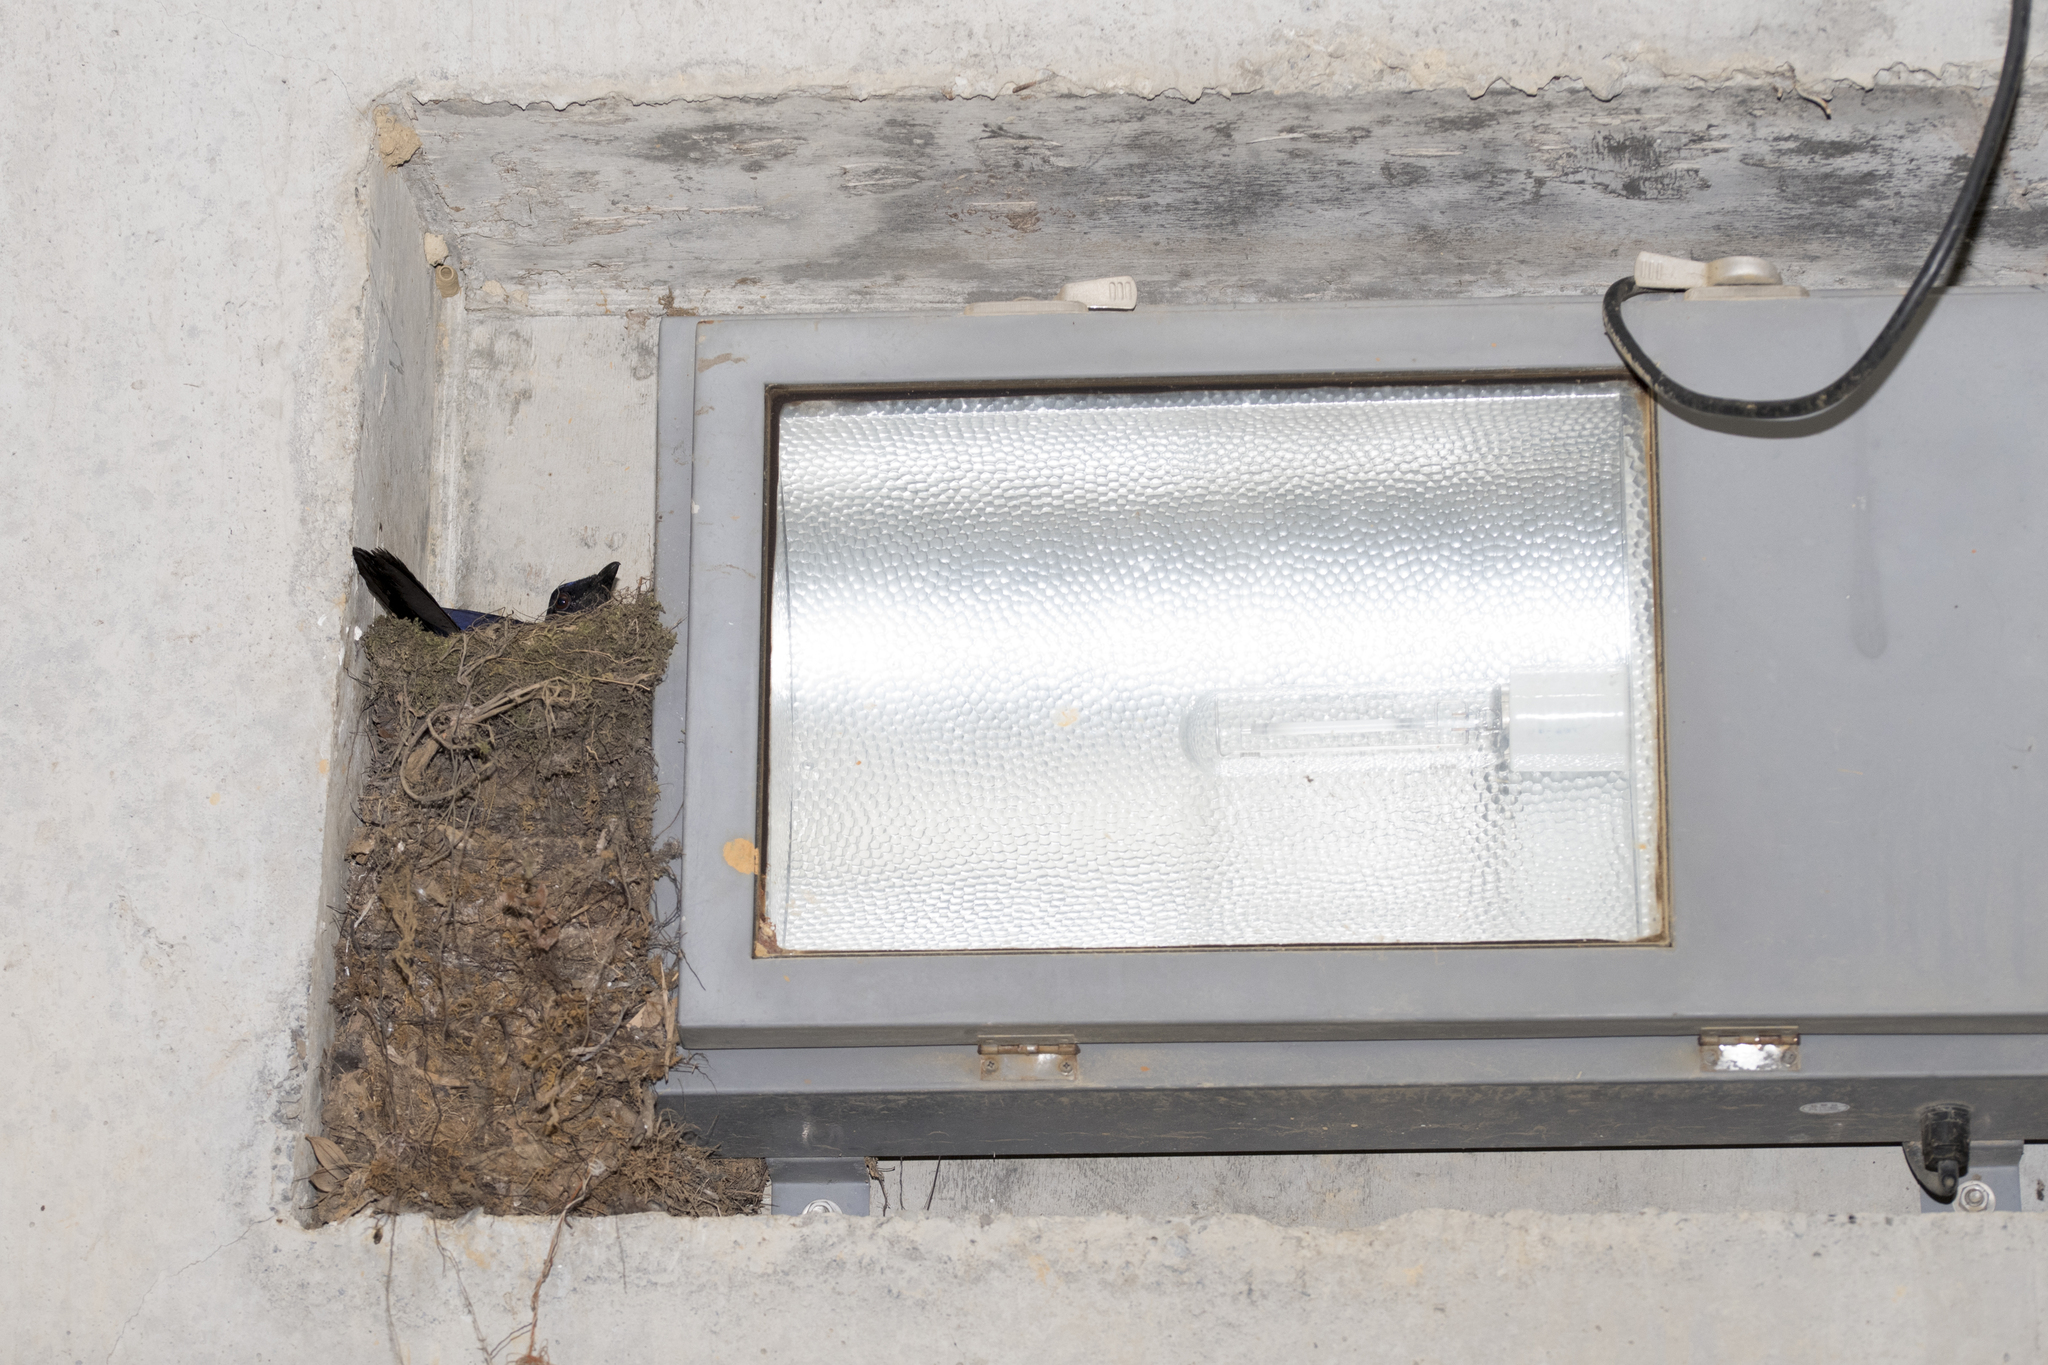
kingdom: Animalia
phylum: Chordata
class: Aves
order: Passeriformes
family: Muscicapidae
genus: Myophonus
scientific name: Myophonus insularis
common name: Taiwan whistling-thrush
